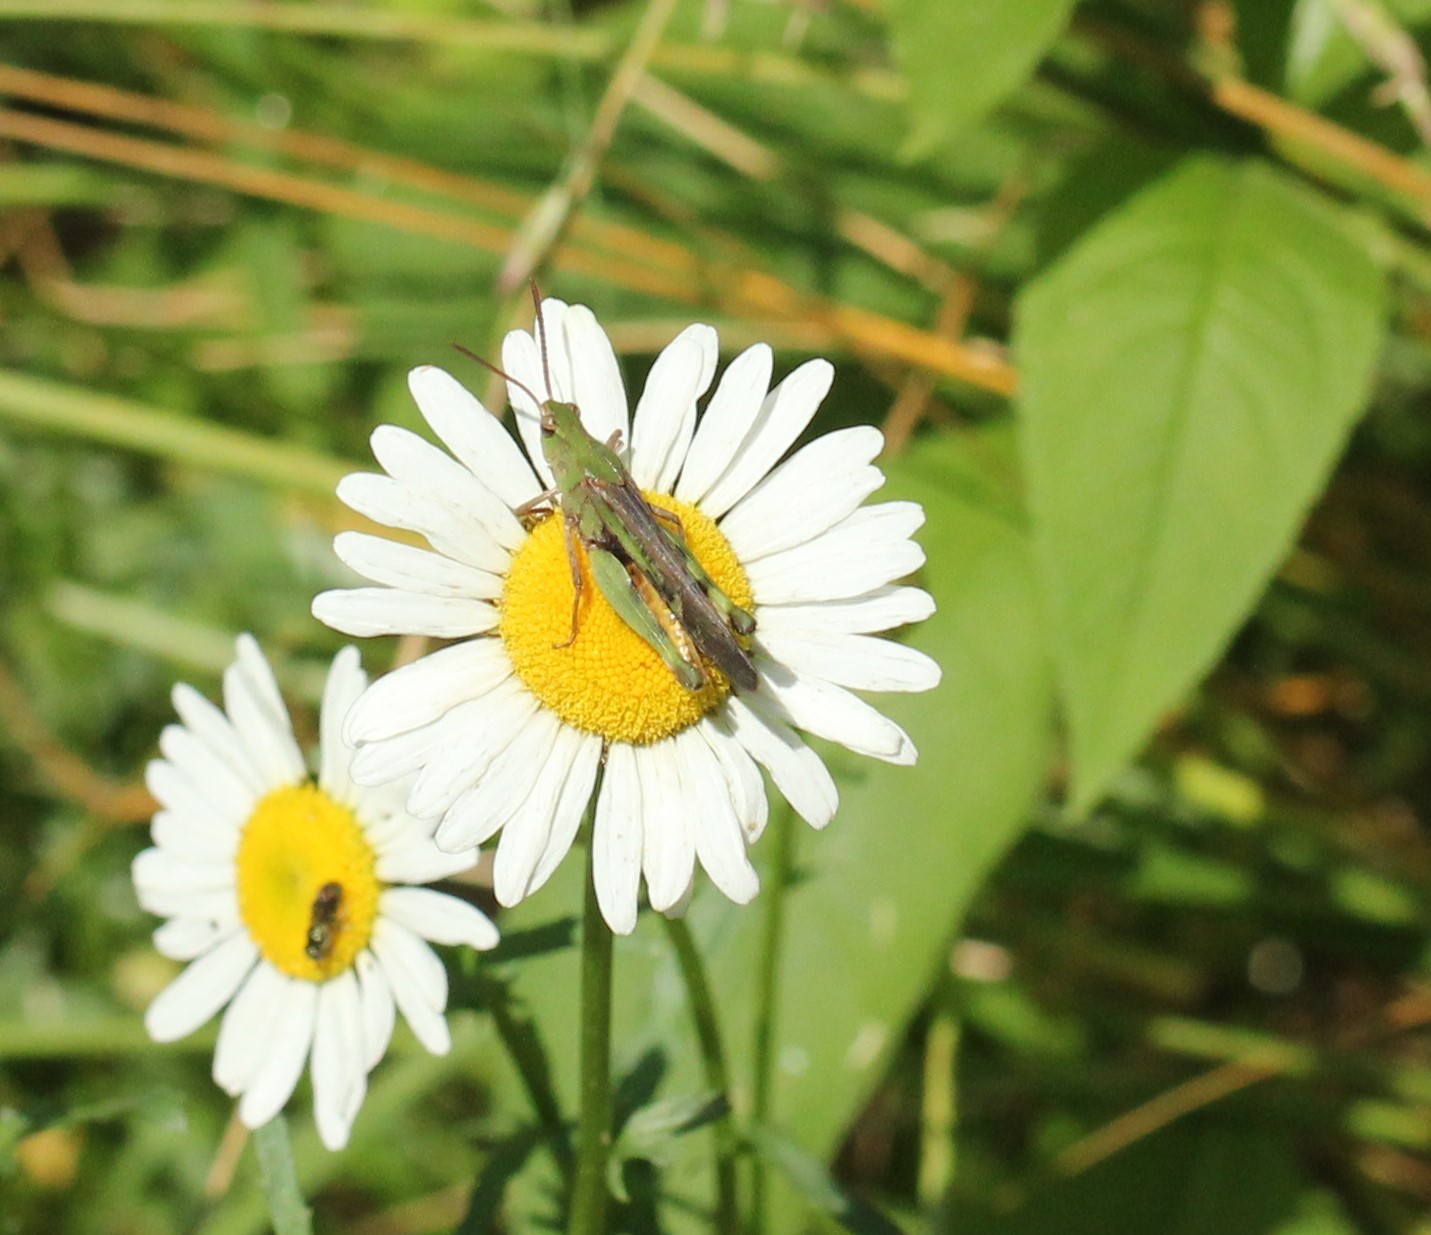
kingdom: Animalia
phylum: Arthropoda
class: Insecta
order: Orthoptera
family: Acrididae
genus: Chortophaga
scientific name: Chortophaga viridifasciata
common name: Green-striped grasshopper
